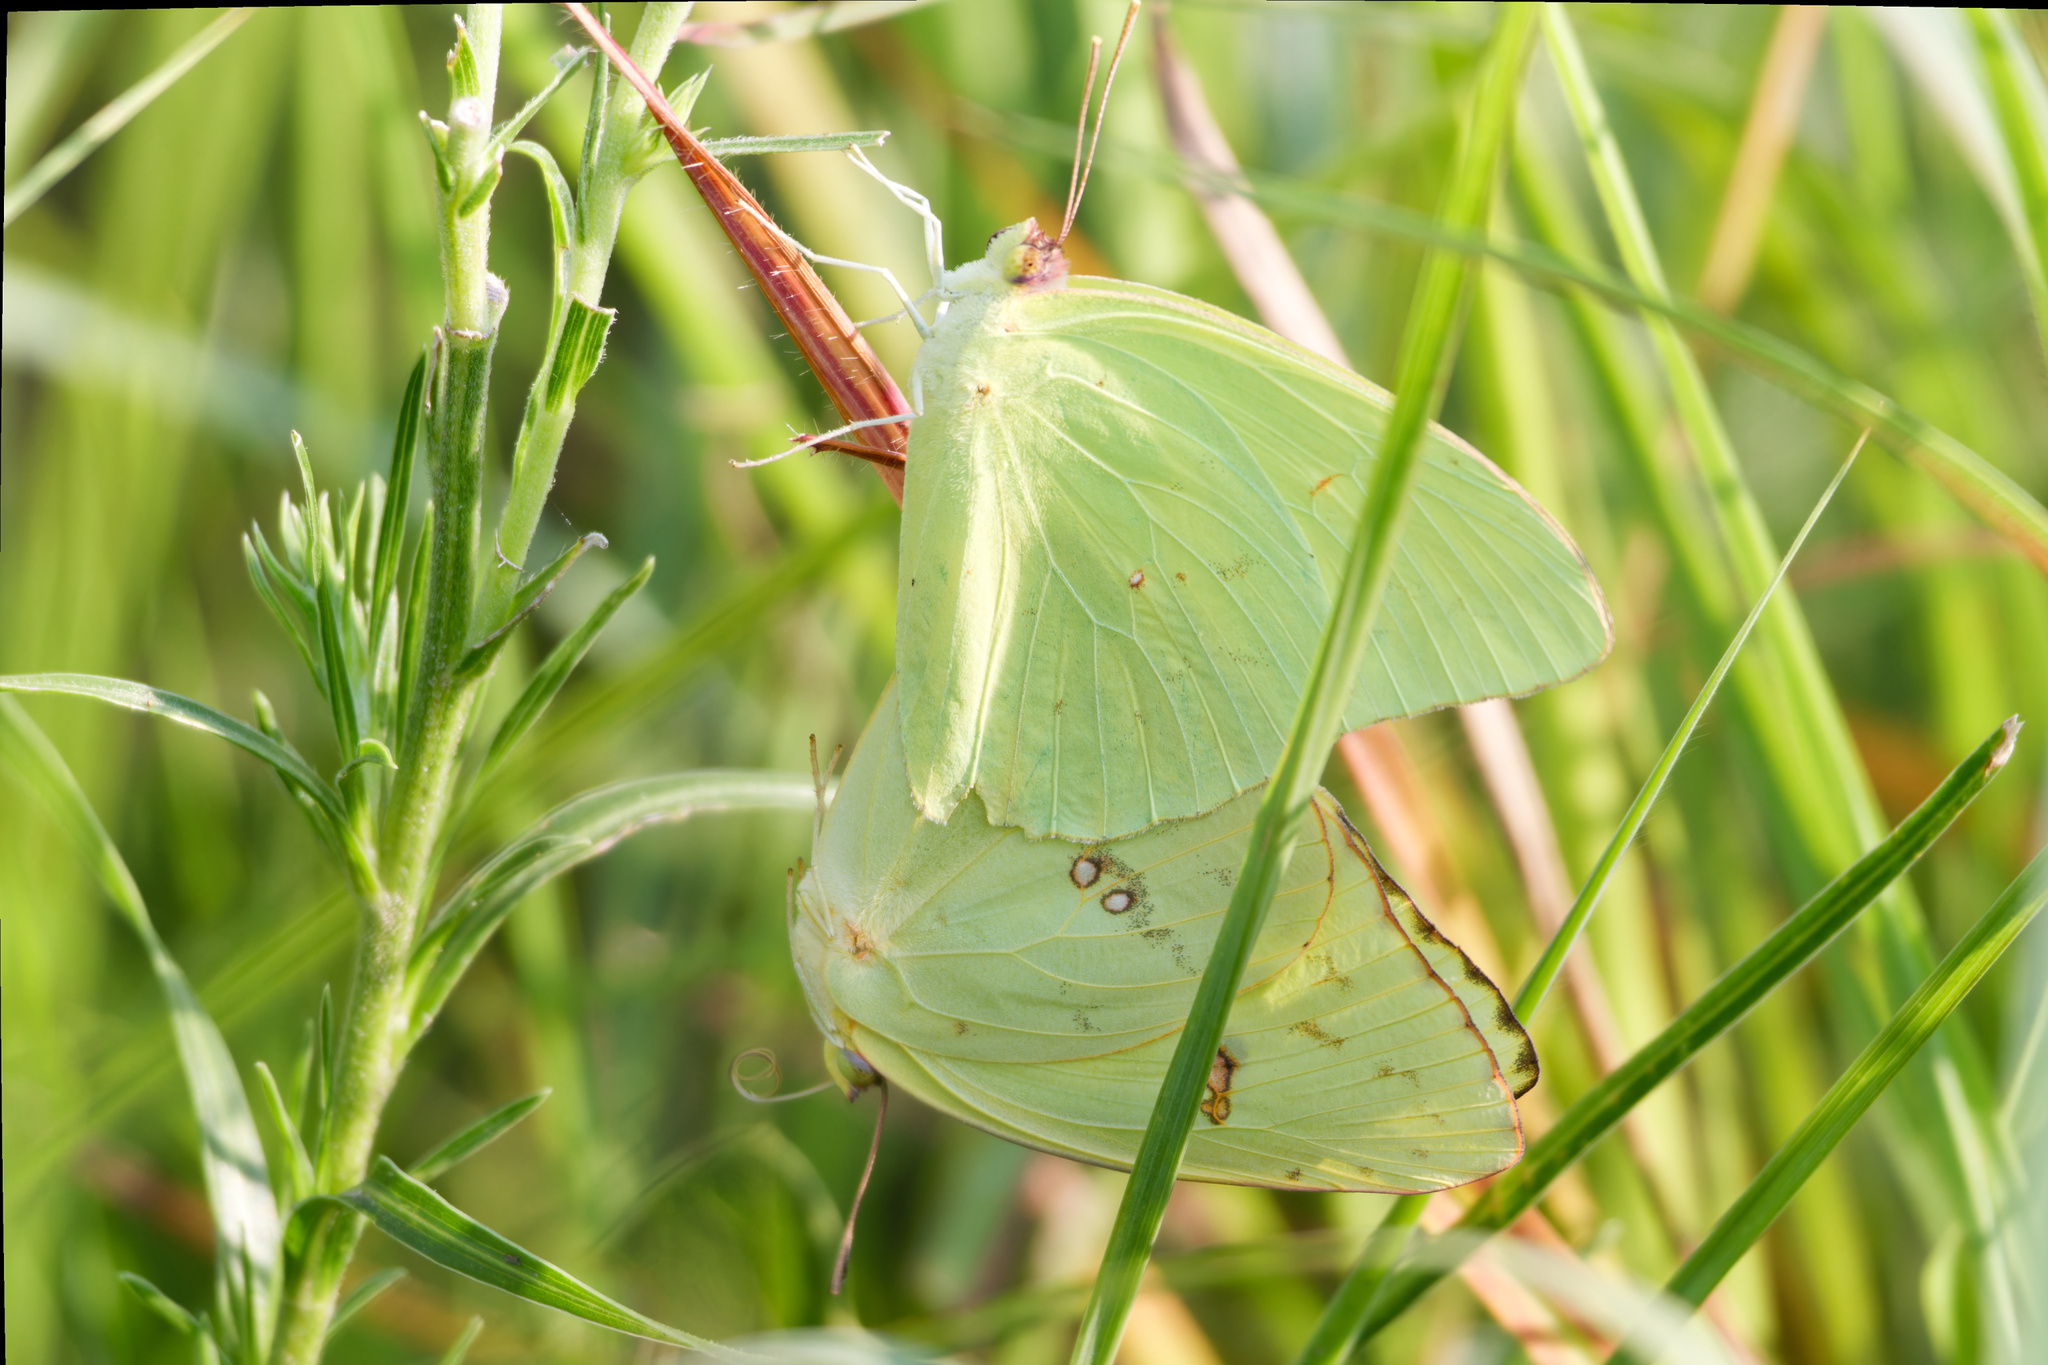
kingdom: Animalia
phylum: Arthropoda
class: Insecta
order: Lepidoptera
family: Pieridae
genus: Phoebis
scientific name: Phoebis sennae
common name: Cloudless sulphur
